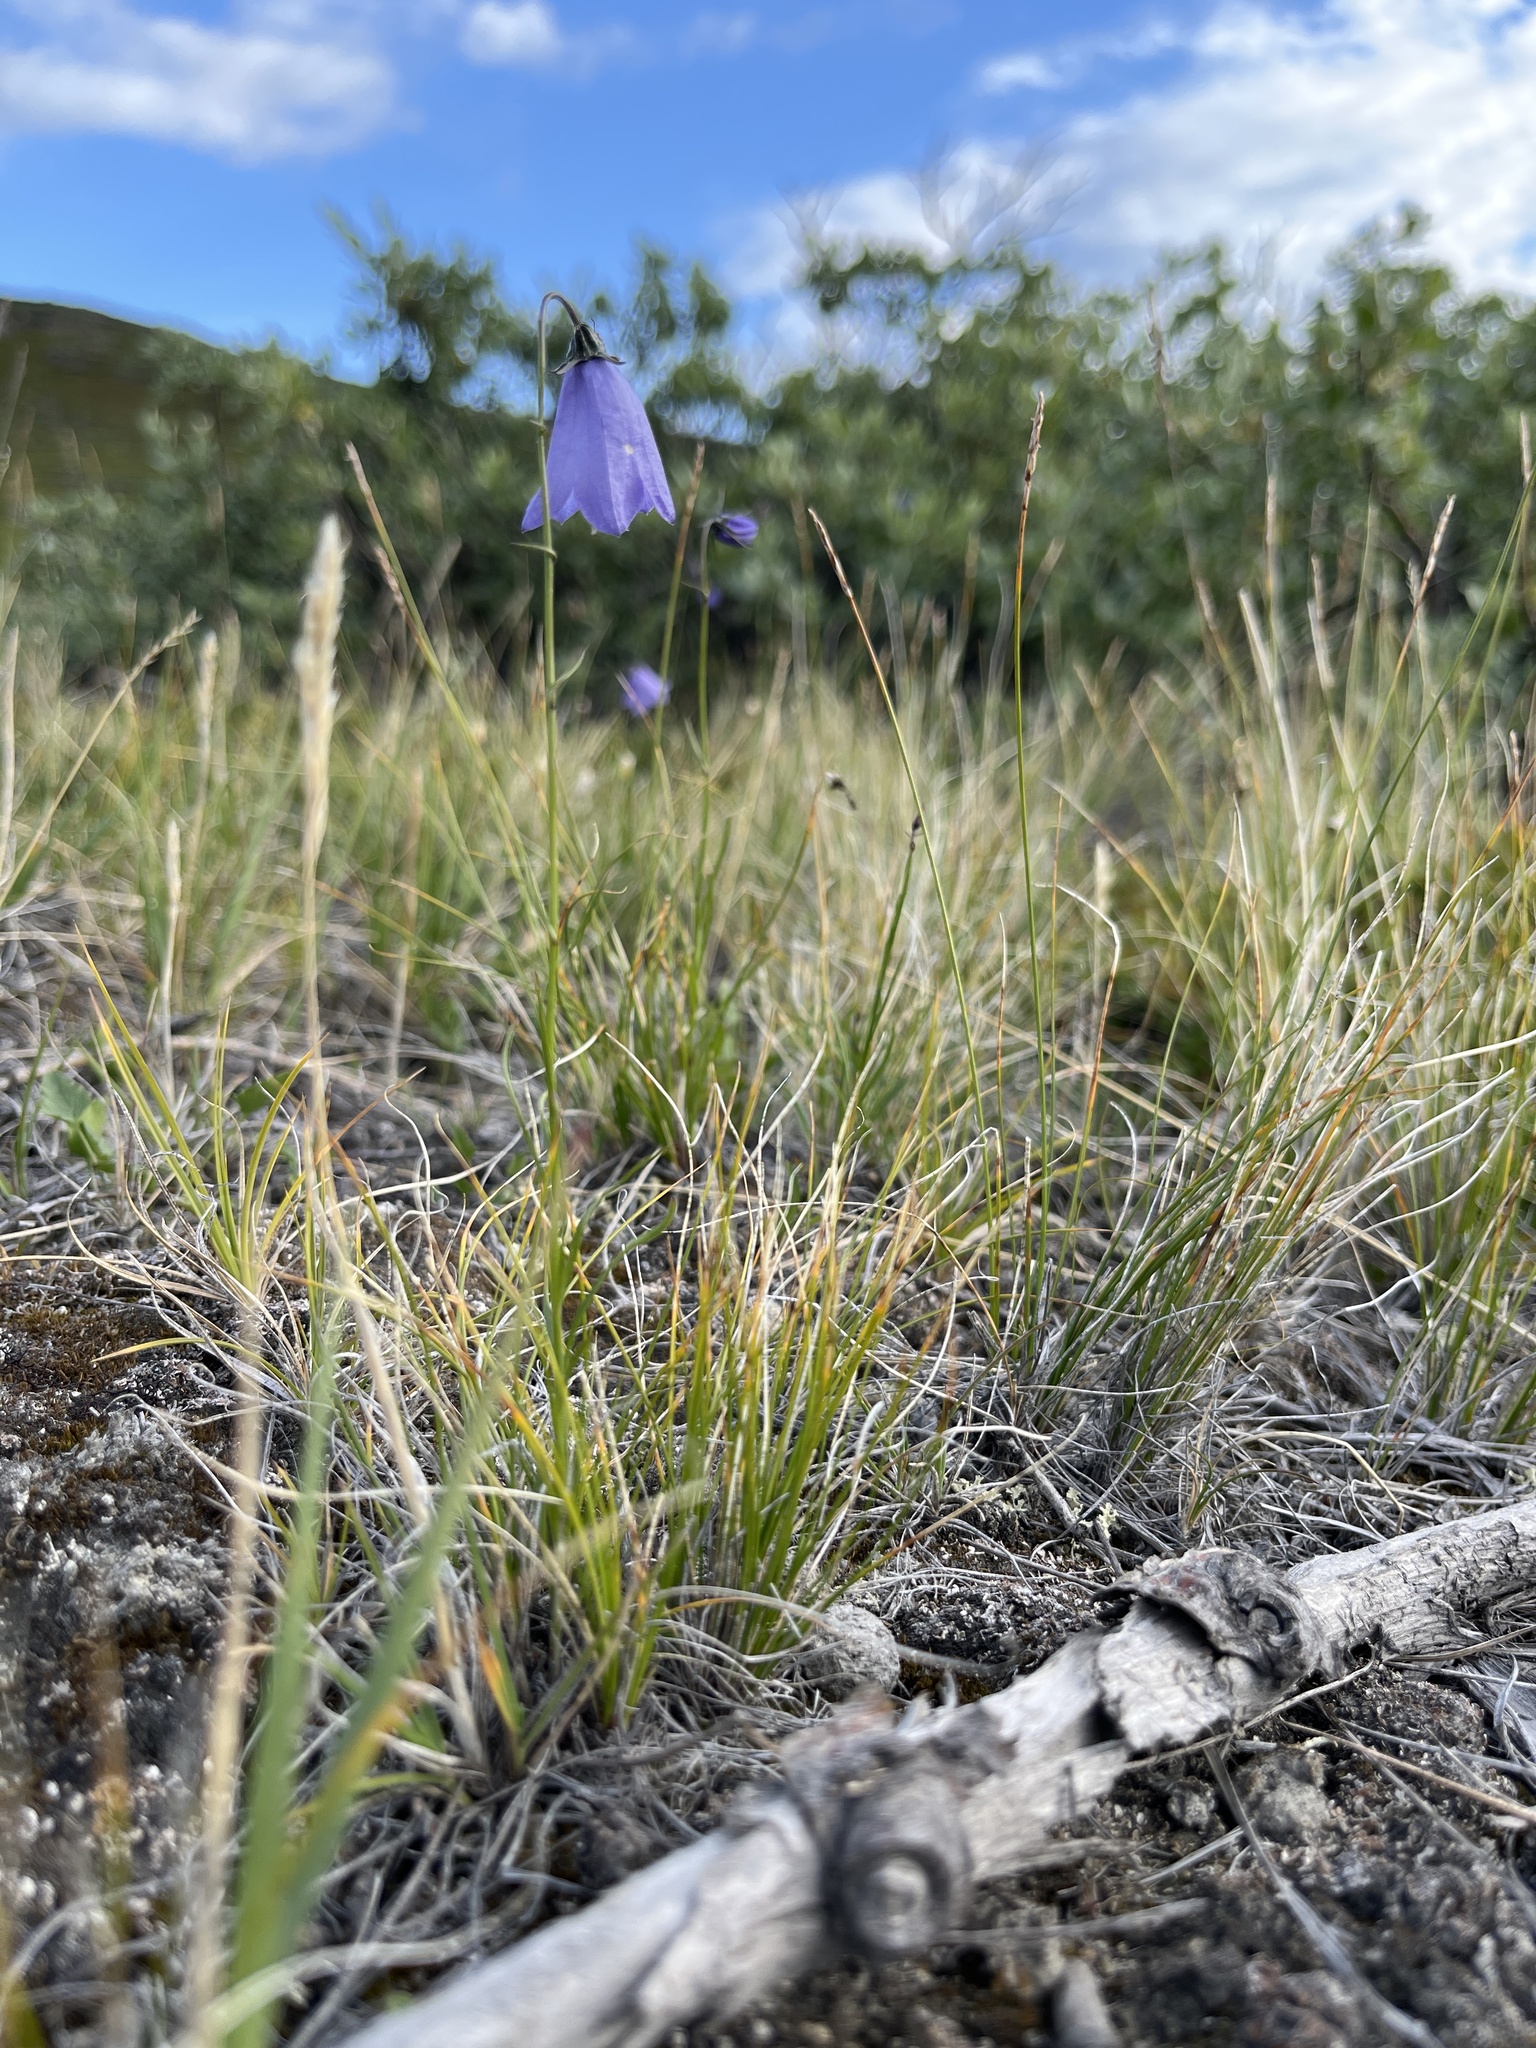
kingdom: Plantae
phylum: Tracheophyta
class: Magnoliopsida
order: Asterales
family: Campanulaceae
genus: Campanula
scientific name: Campanula giesekiana
